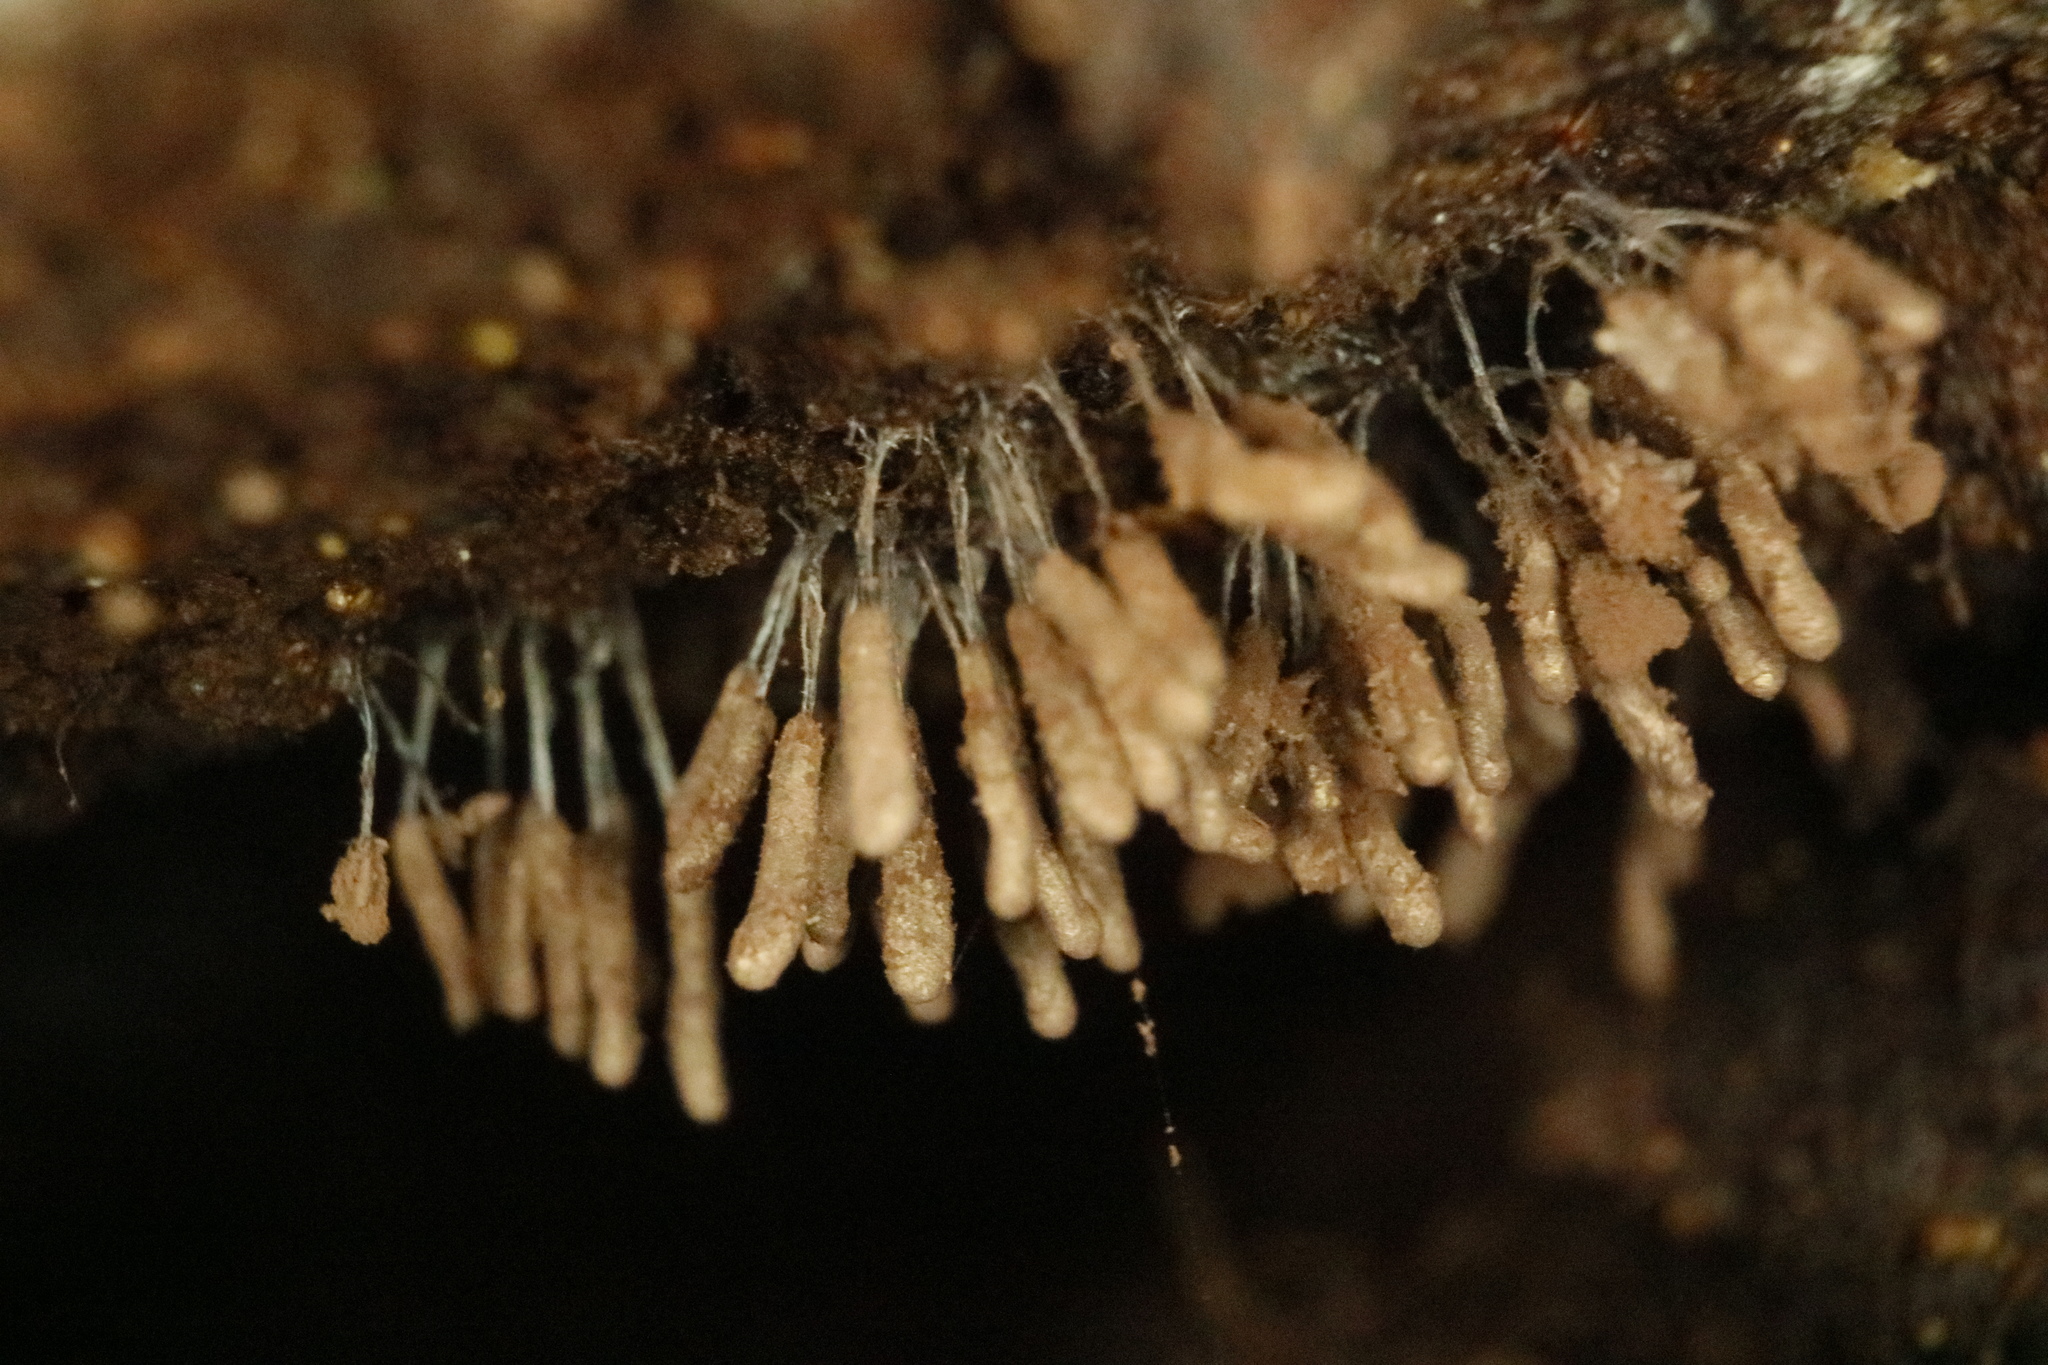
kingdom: Protozoa
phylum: Mycetozoa
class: Myxomycetes
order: Stemonitidales
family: Stemonitidaceae
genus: Stemonitopsis
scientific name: Stemonitopsis typhina
